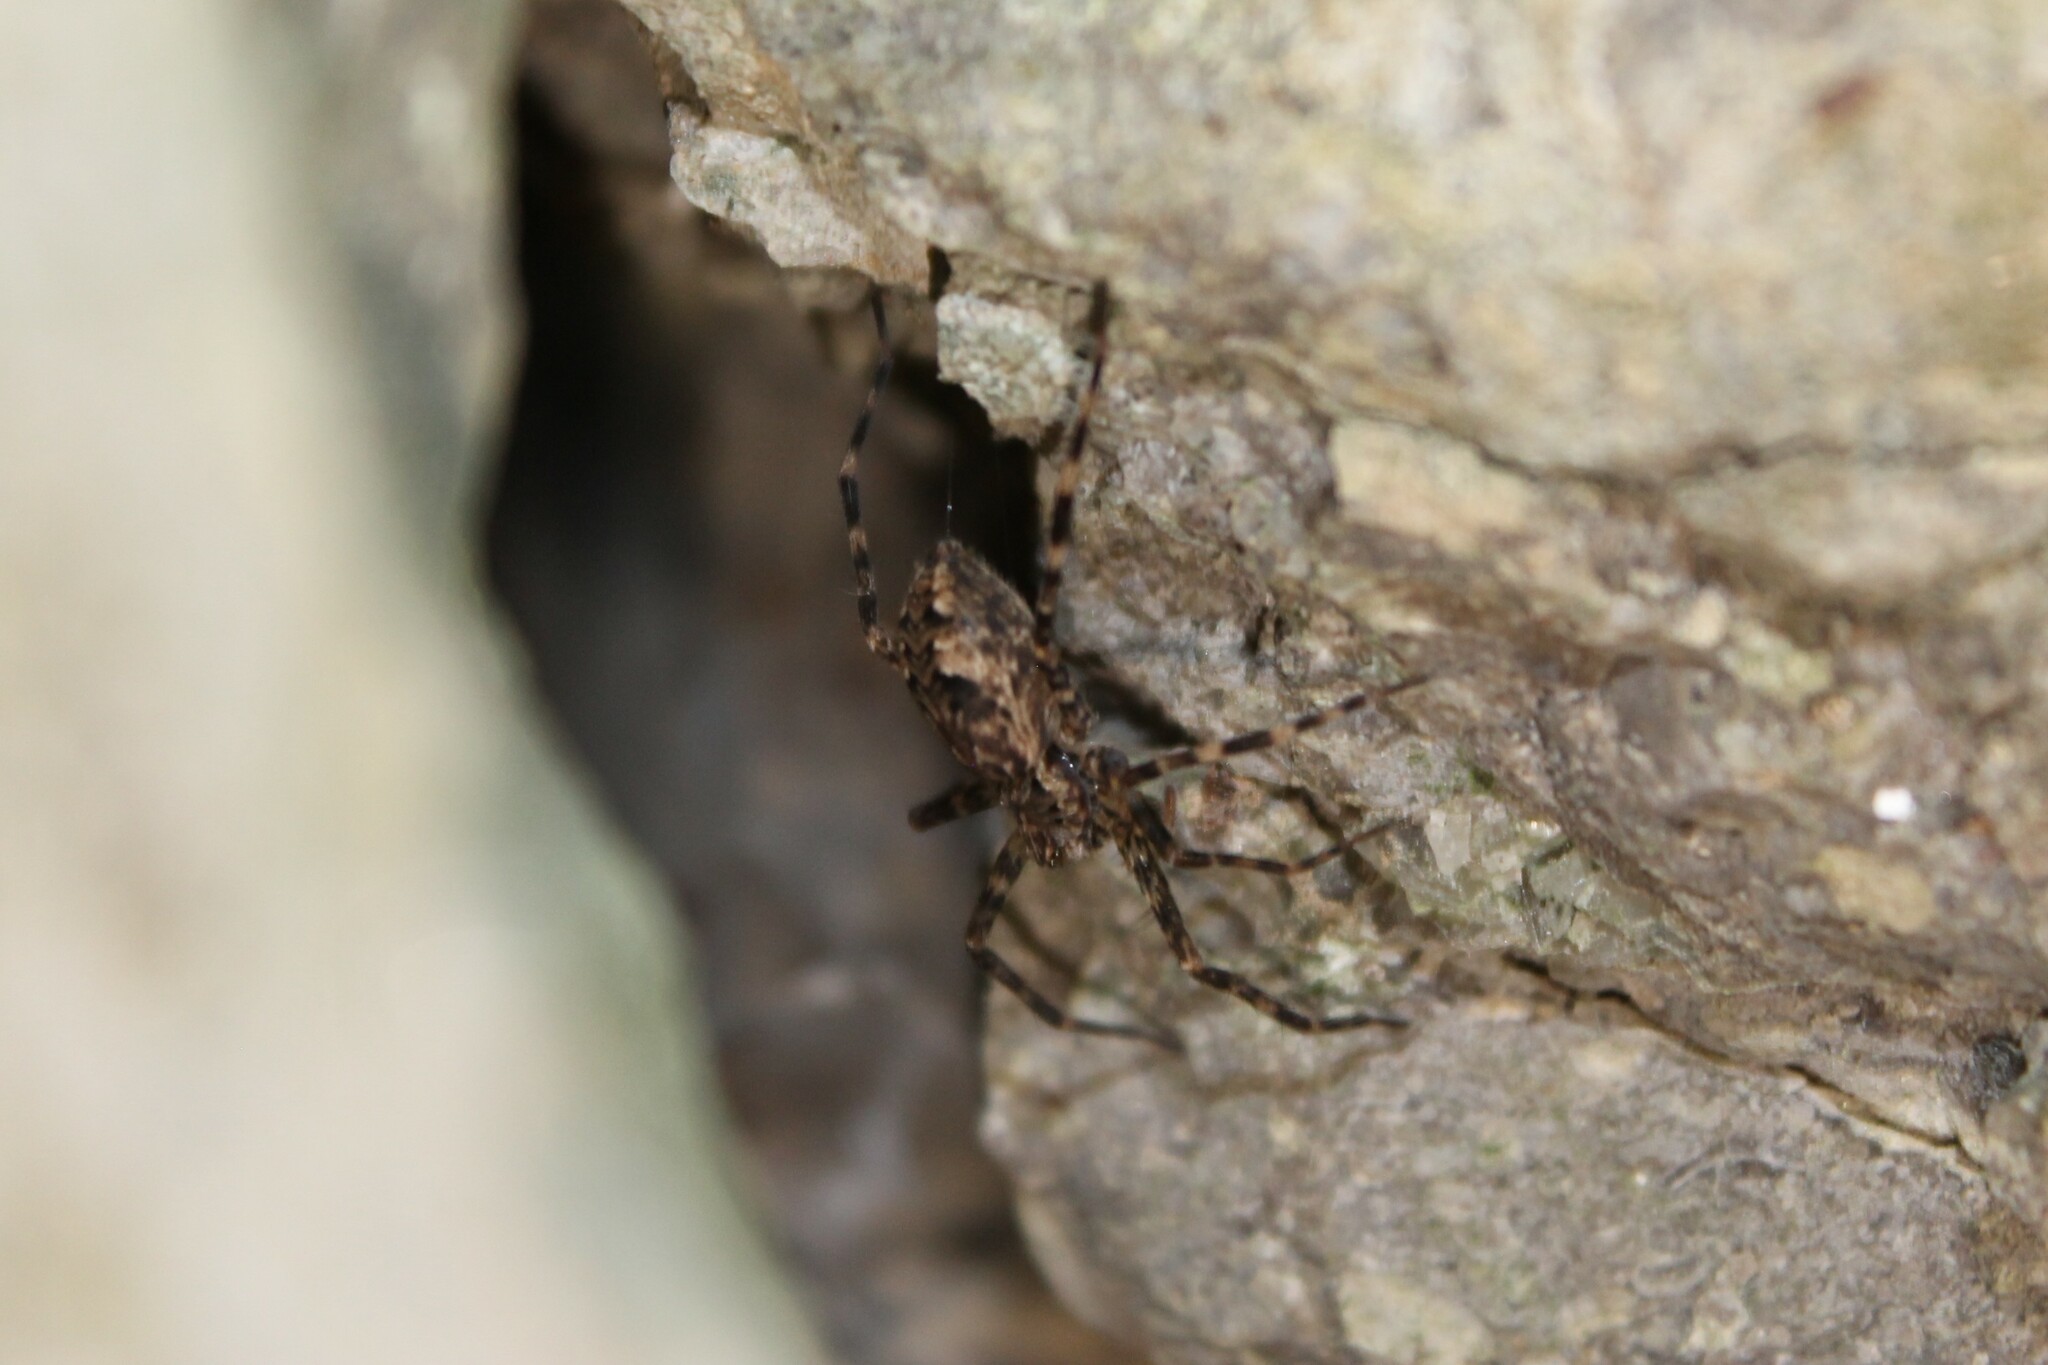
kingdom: Animalia
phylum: Arthropoda
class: Arachnida
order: Araneae
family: Pisauridae
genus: Dolomedes
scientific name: Dolomedes tenebrosus
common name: Dark fishing spider
